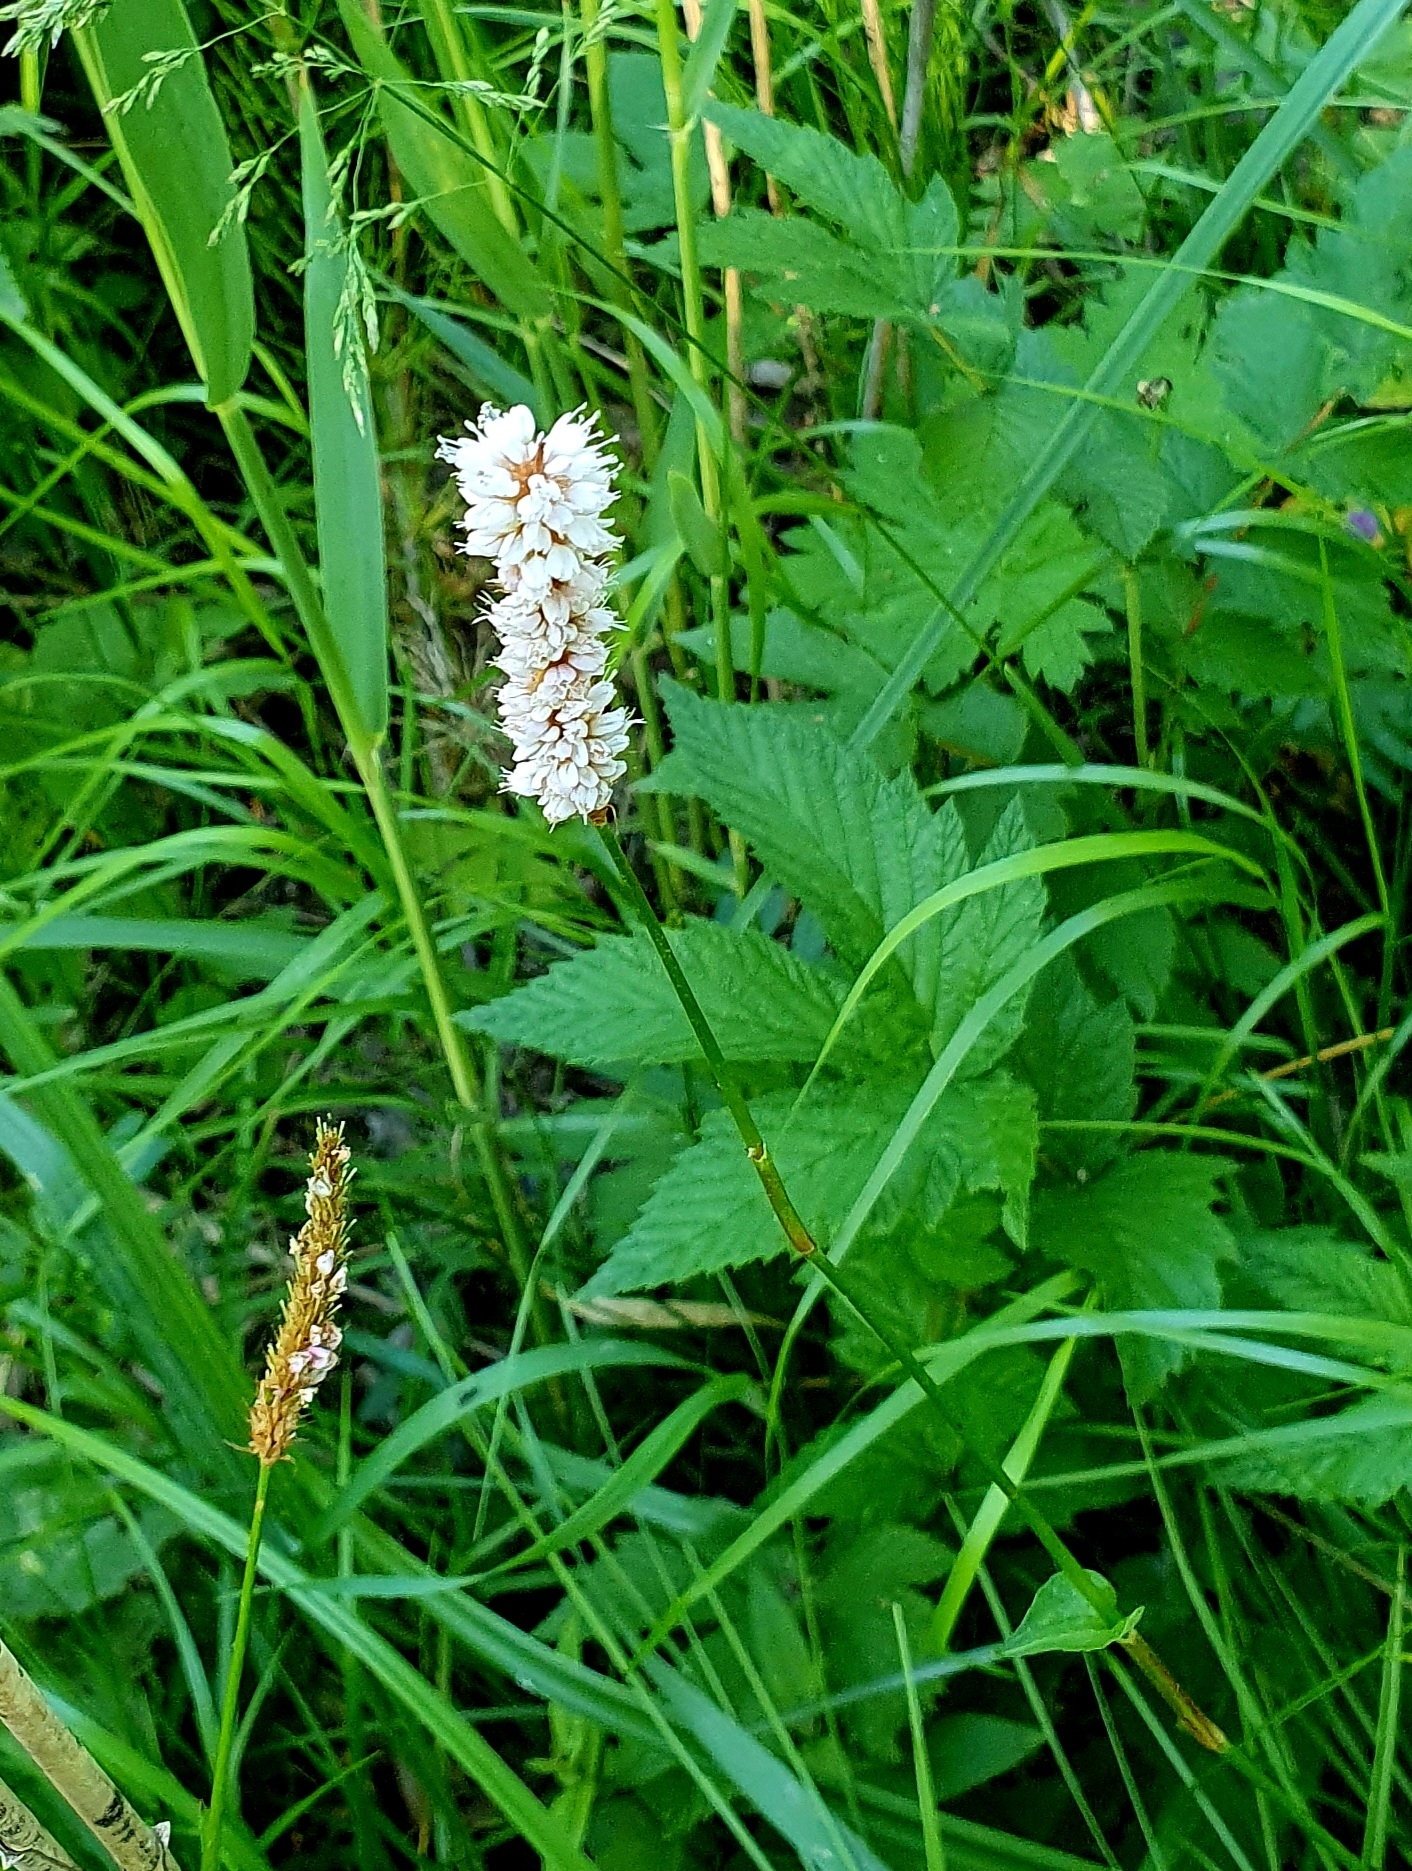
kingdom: Plantae
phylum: Tracheophyta
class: Magnoliopsida
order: Caryophyllales
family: Polygonaceae
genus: Bistorta
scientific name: Bistorta officinalis
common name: Common bistort
